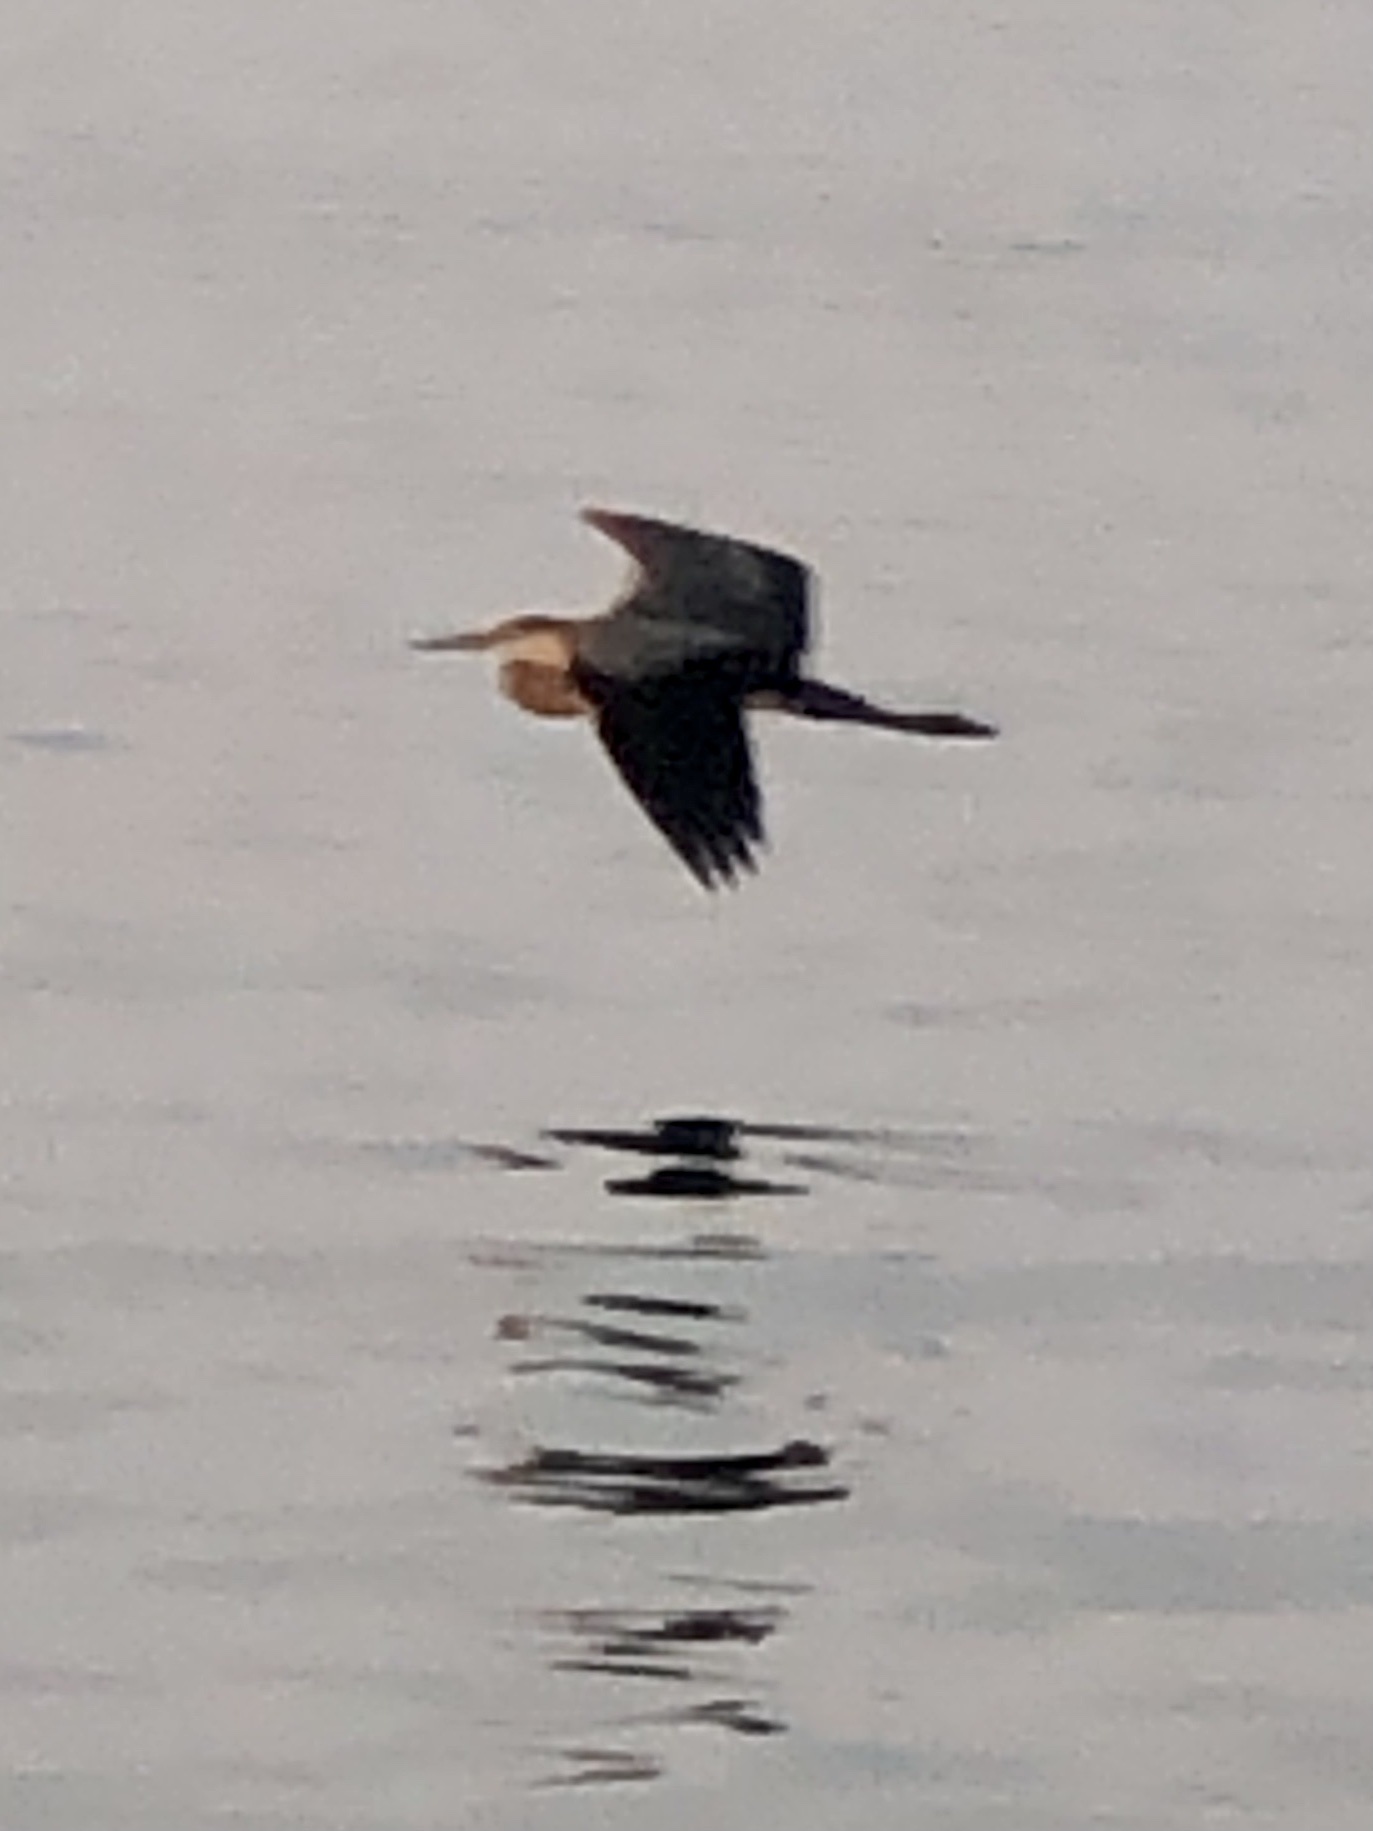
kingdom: Animalia
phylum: Chordata
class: Aves
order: Pelecaniformes
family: Ardeidae
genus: Ardea
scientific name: Ardea herodias
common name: Great blue heron
